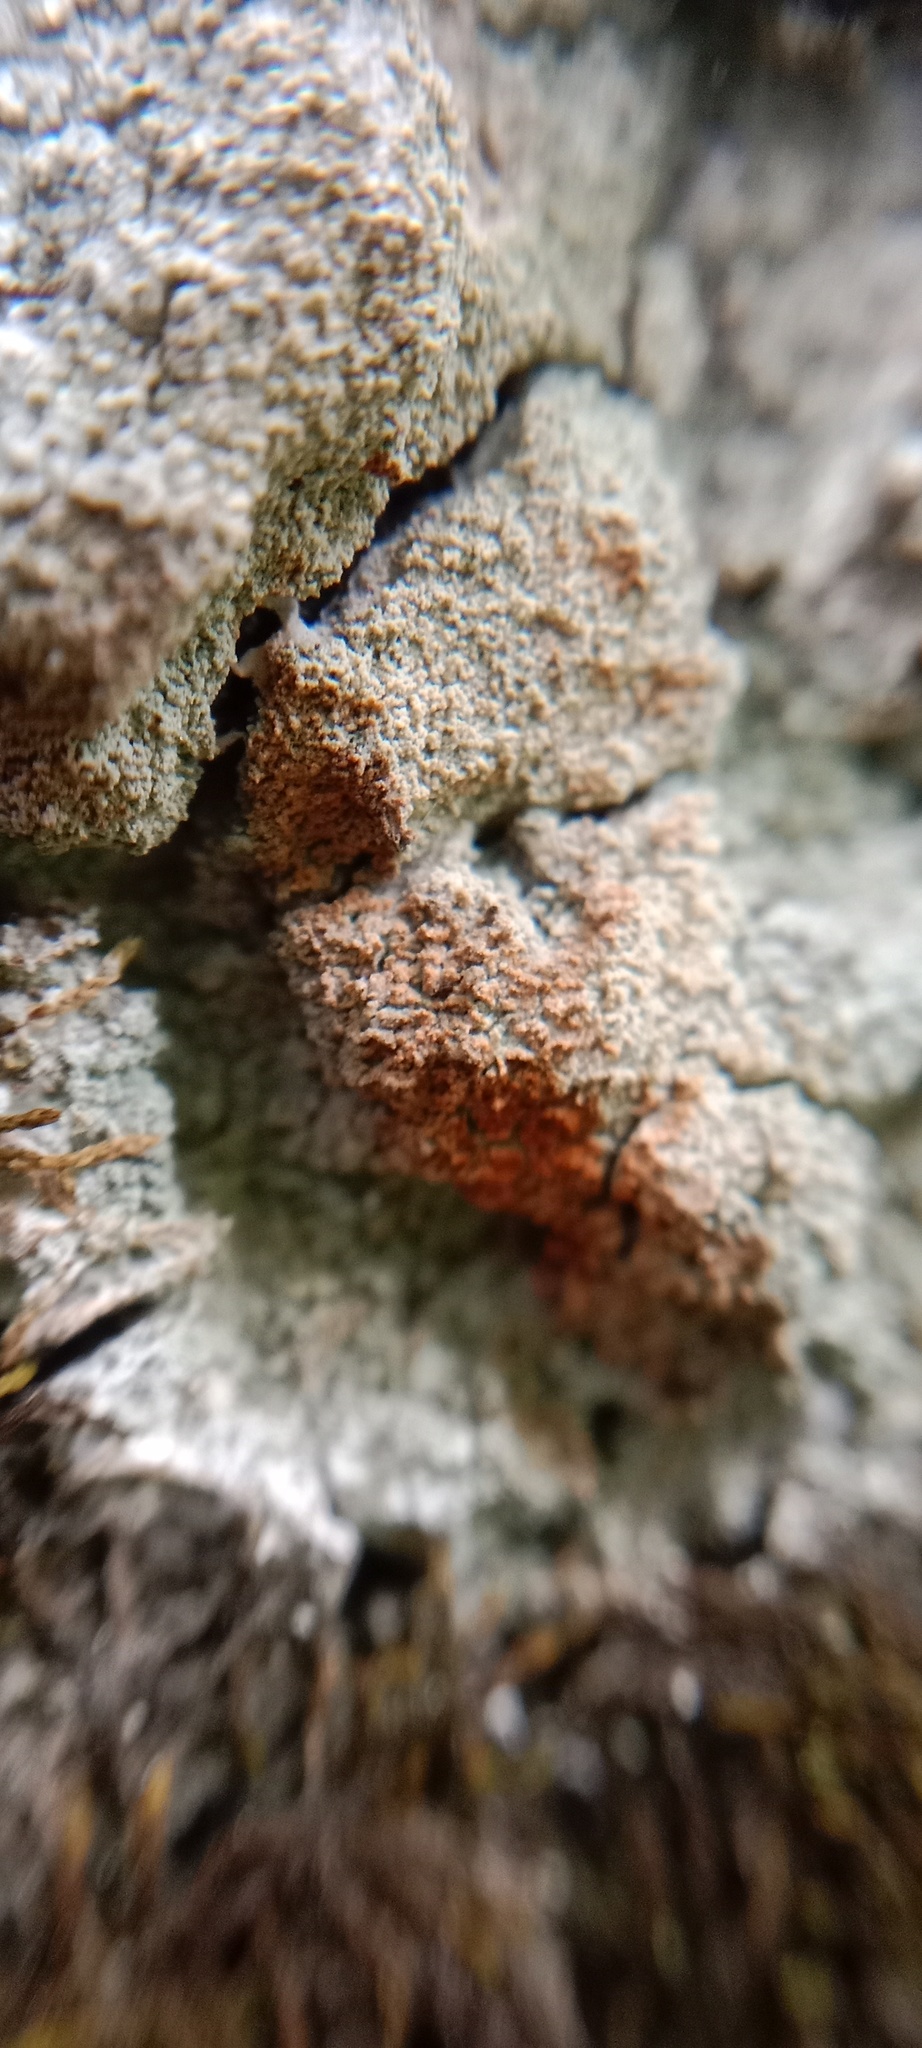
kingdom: Fungi
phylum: Ascomycota
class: Lecanoromycetes
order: Ostropales
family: Phlyctidaceae
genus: Phlyctis
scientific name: Phlyctis argena
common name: Whitewash lichen
